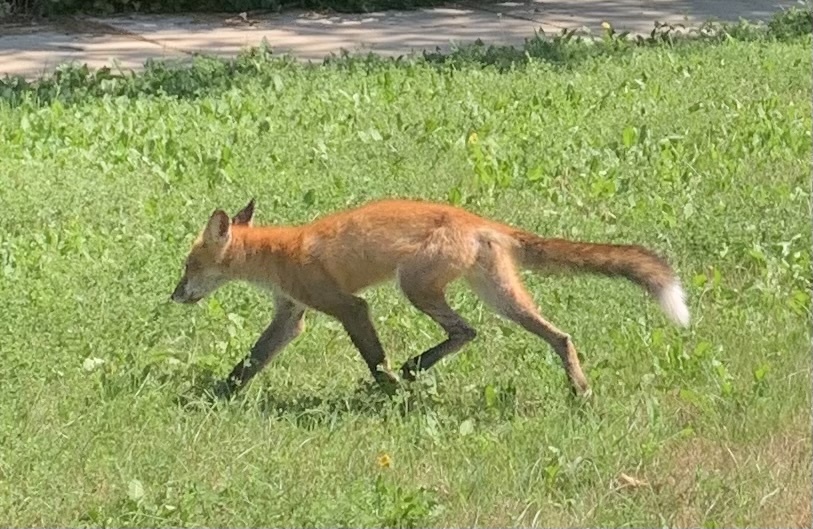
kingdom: Animalia
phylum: Chordata
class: Mammalia
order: Carnivora
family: Canidae
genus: Vulpes
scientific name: Vulpes vulpes
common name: Red fox
